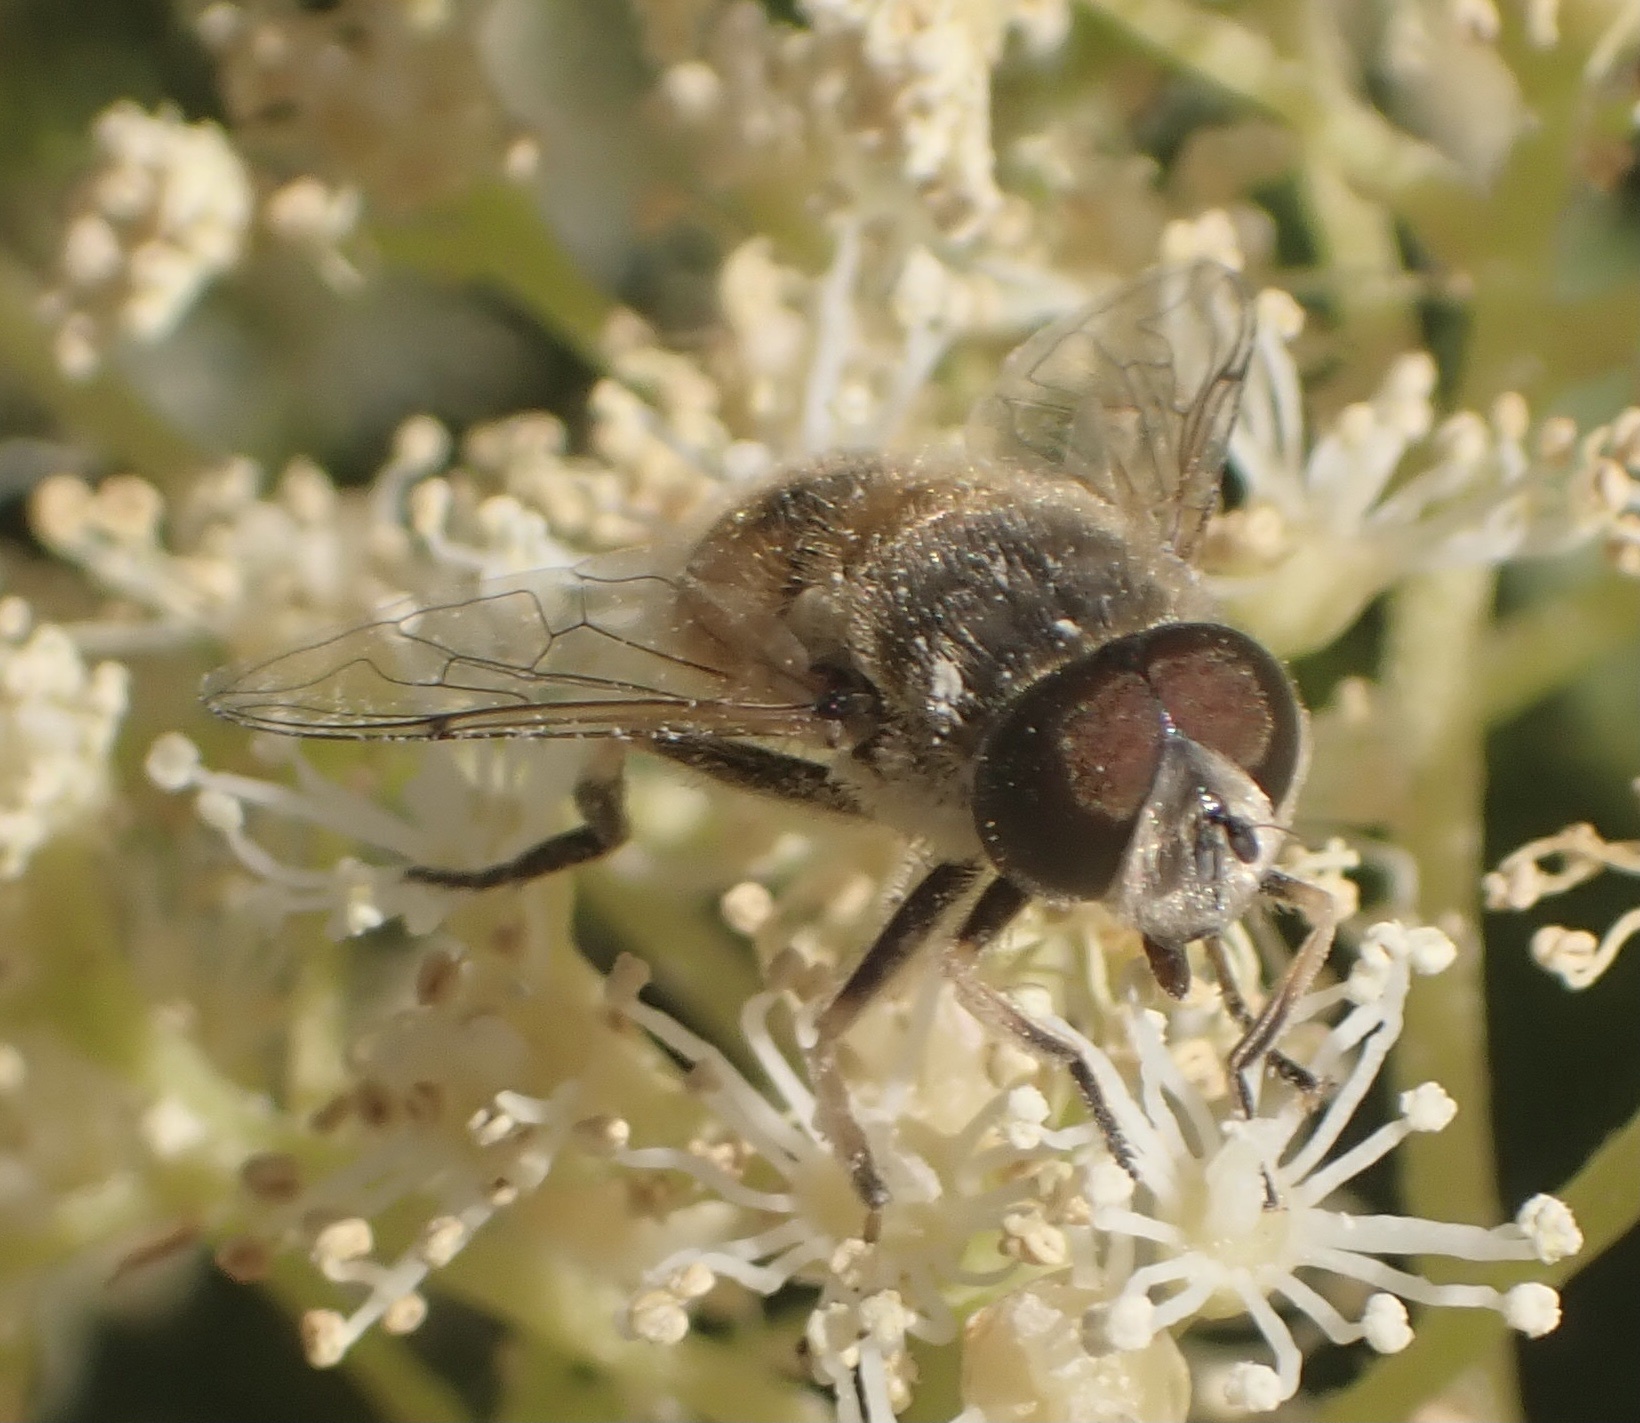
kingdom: Animalia
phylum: Arthropoda
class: Insecta
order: Diptera
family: Syrphidae
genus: Eristalis
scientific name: Eristalis arbustorum
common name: Hover fly
